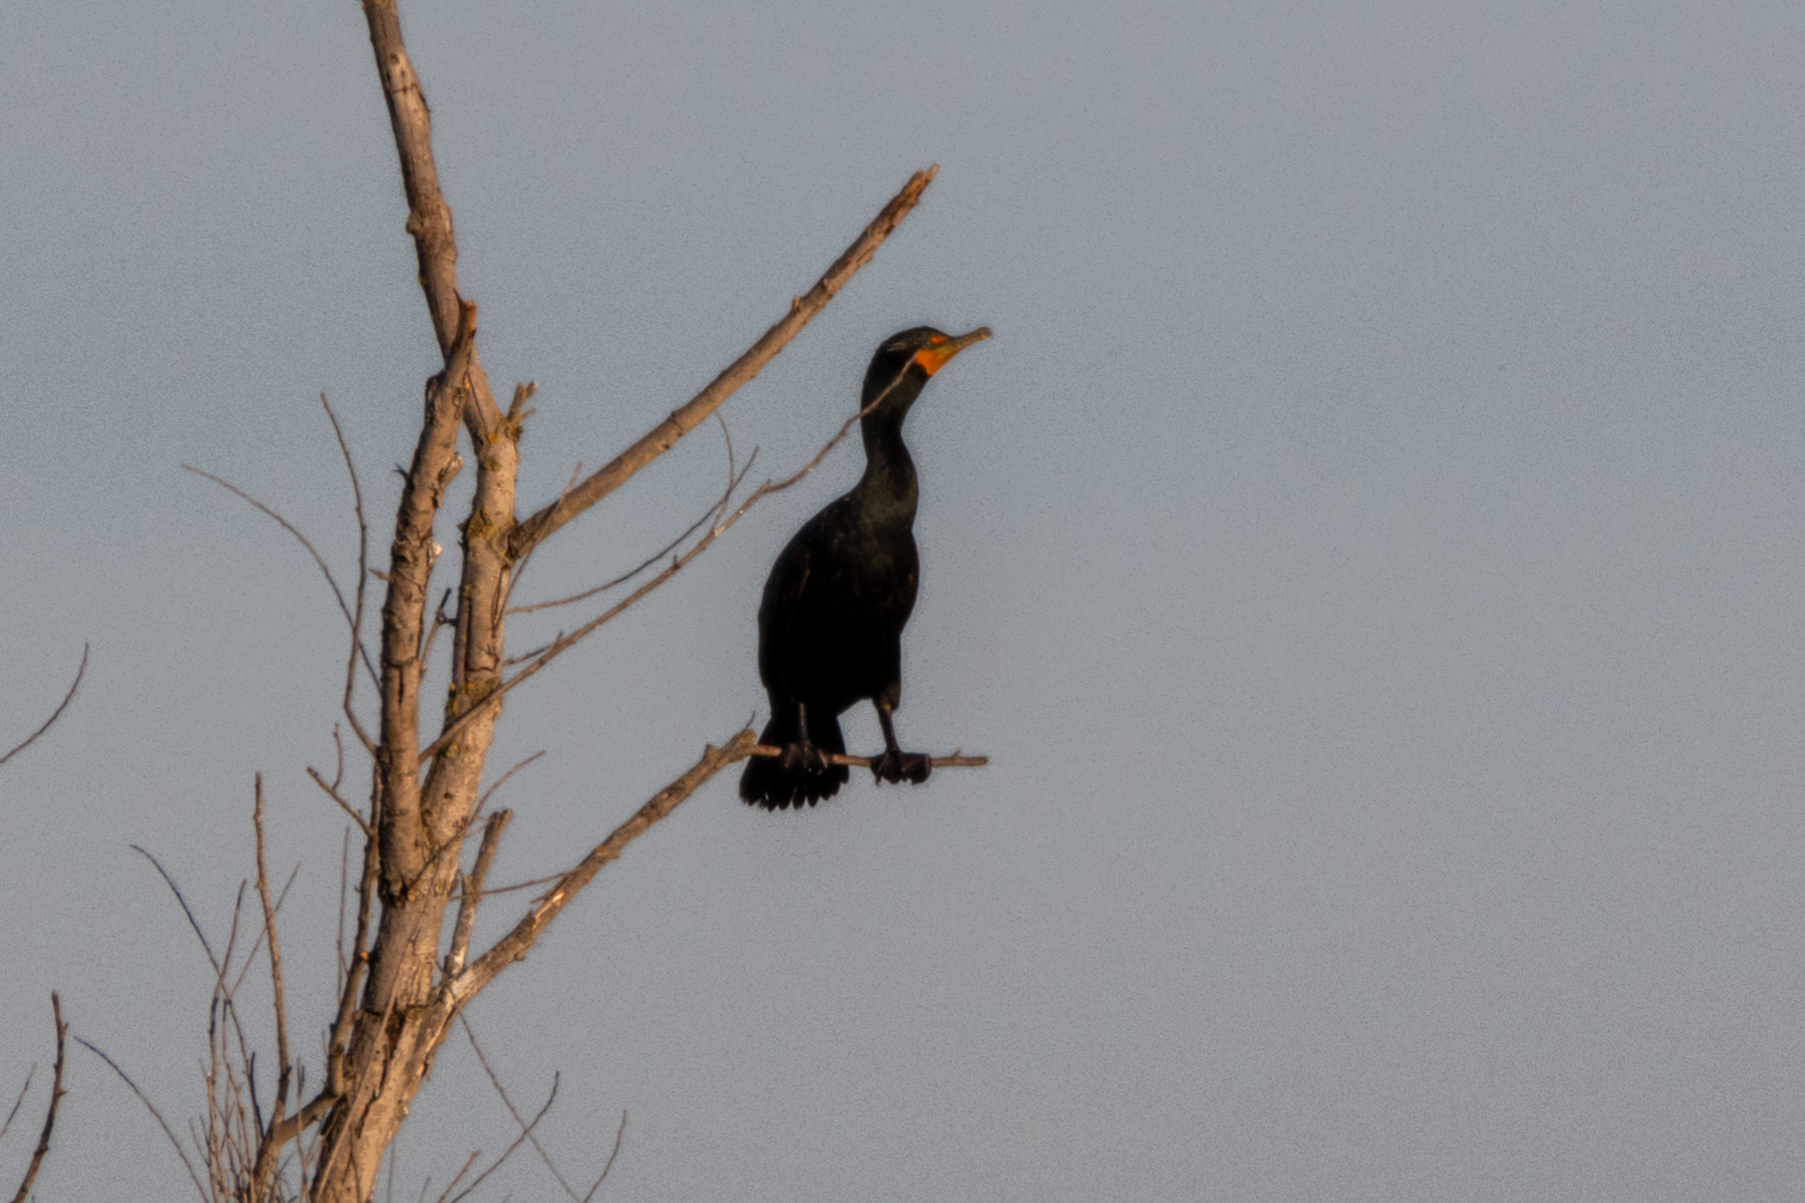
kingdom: Animalia
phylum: Chordata
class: Aves
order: Suliformes
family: Phalacrocoracidae
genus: Phalacrocorax
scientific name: Phalacrocorax auritus
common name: Double-crested cormorant
